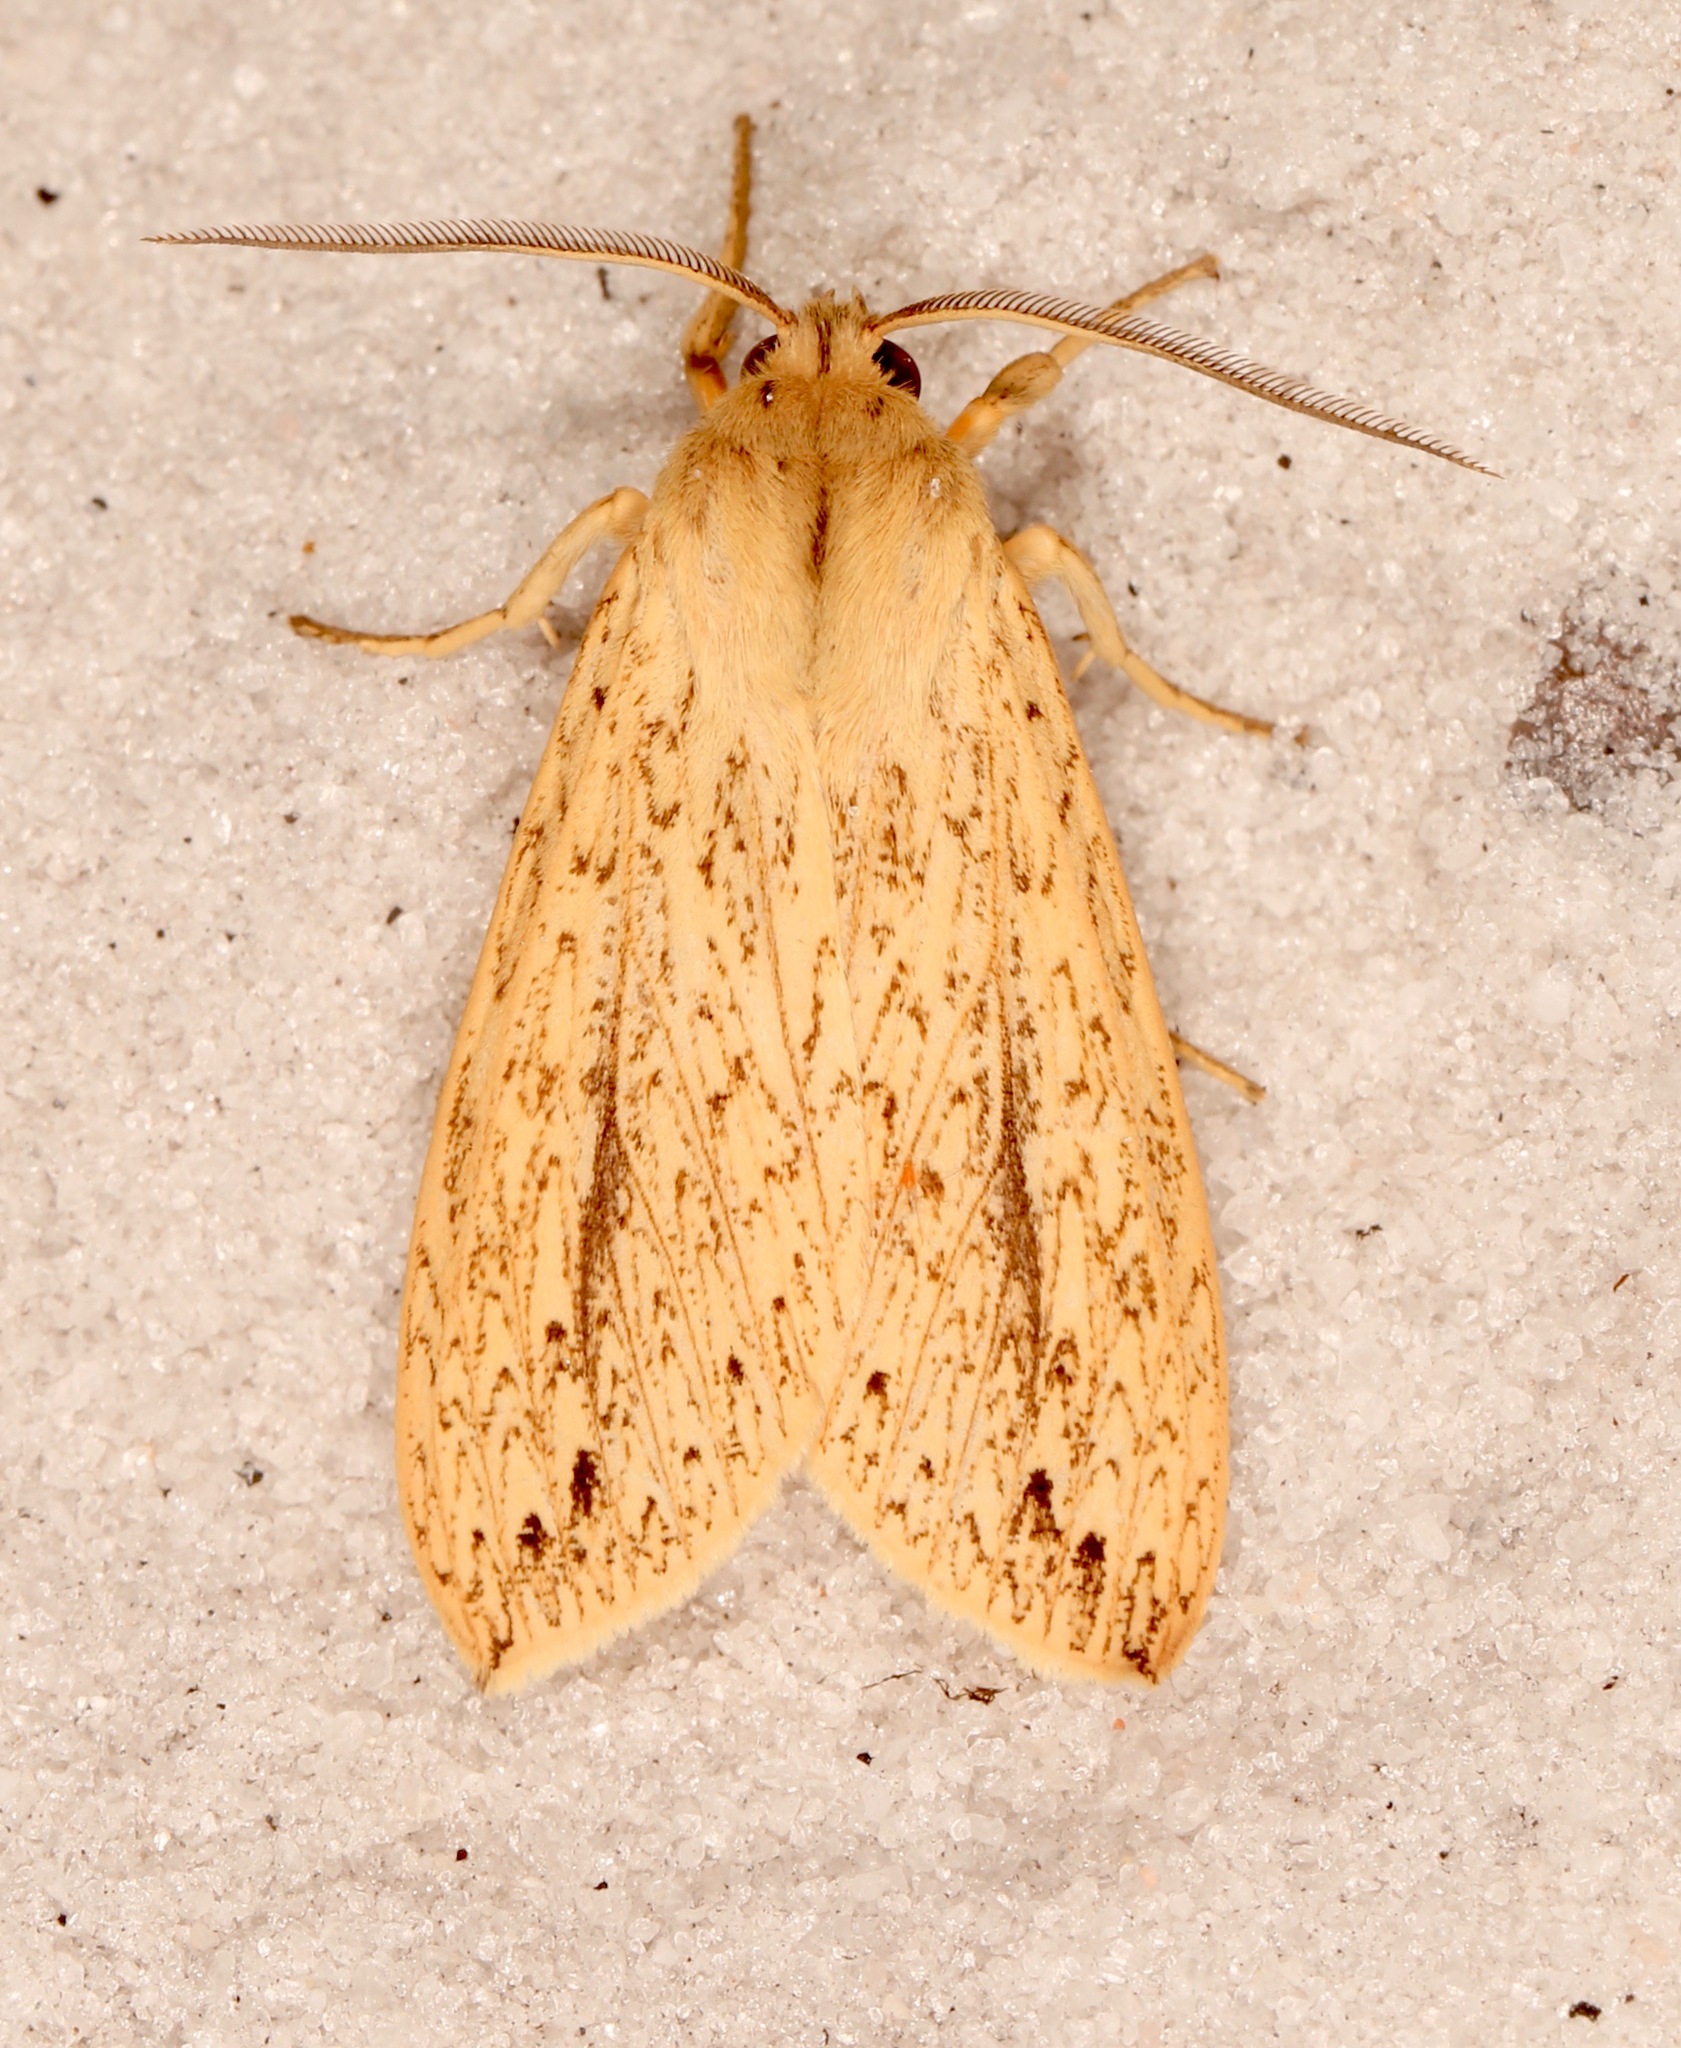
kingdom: Animalia
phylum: Arthropoda
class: Insecta
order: Lepidoptera
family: Erebidae
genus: Leucanopsis
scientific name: Leucanopsis longa
